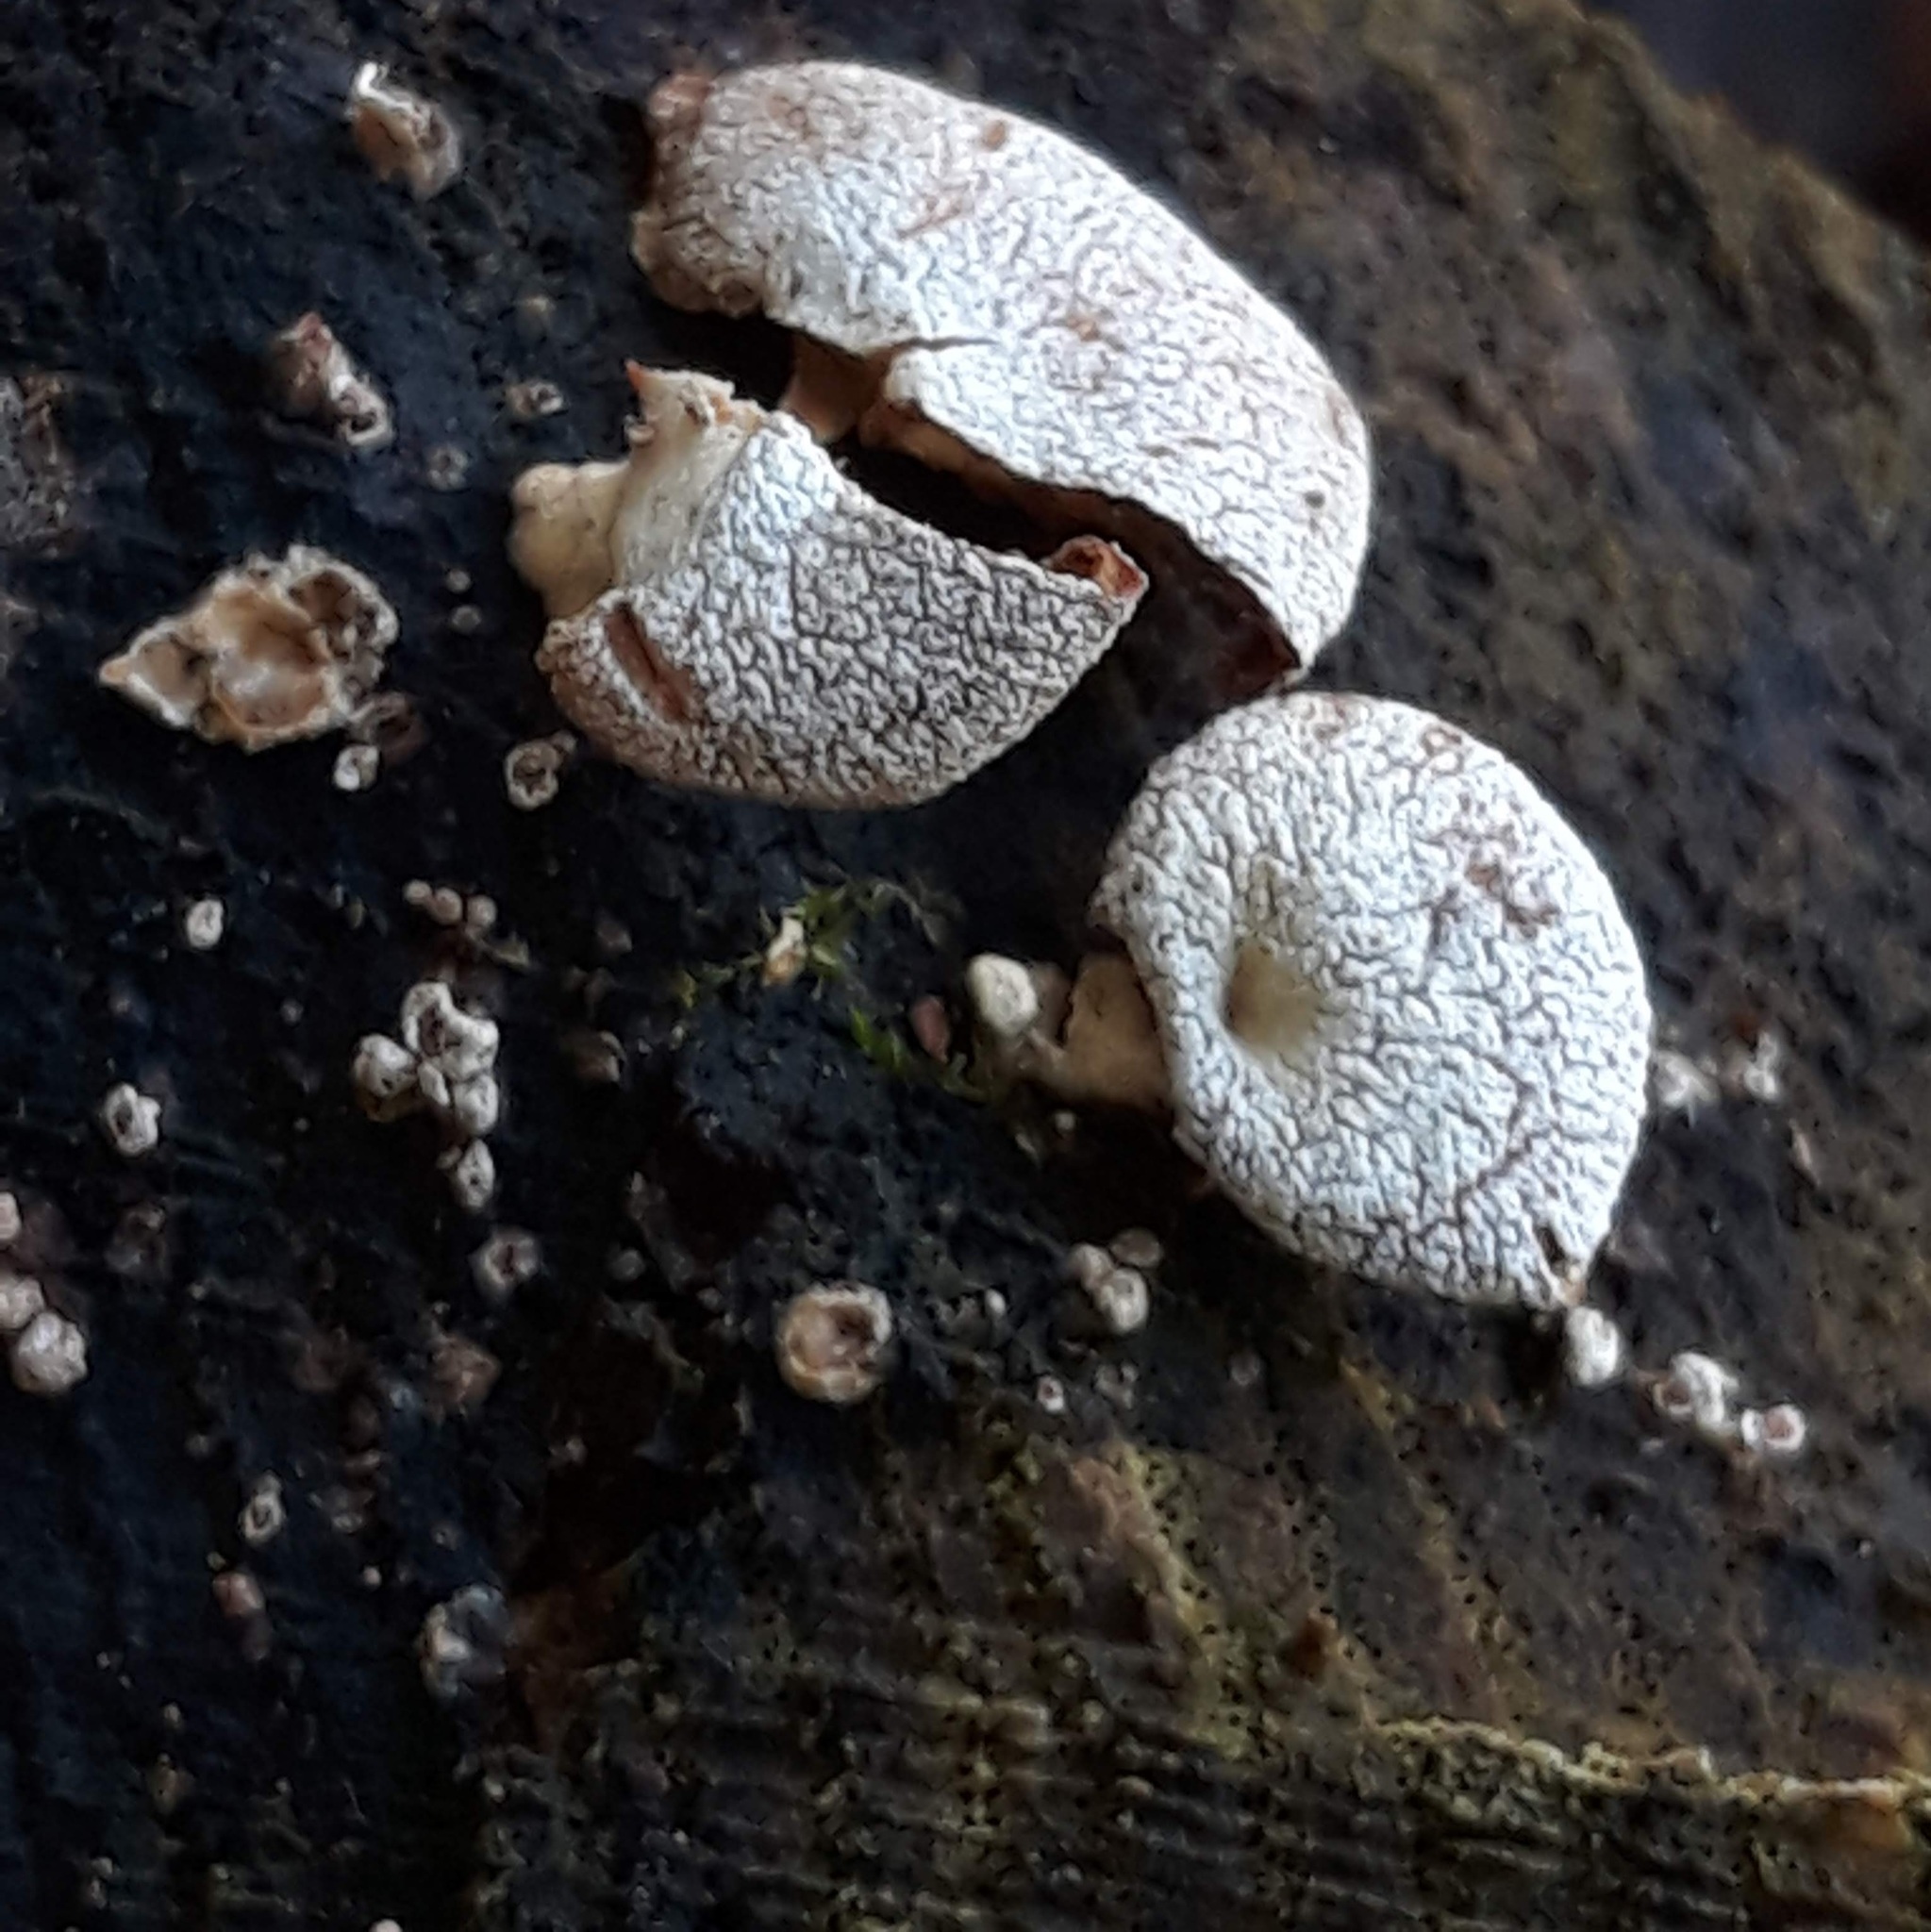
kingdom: Fungi
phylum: Basidiomycota
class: Agaricomycetes
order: Agaricales
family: Mycenaceae
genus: Panellus
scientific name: Panellus stipticus
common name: Bitter oysterling
